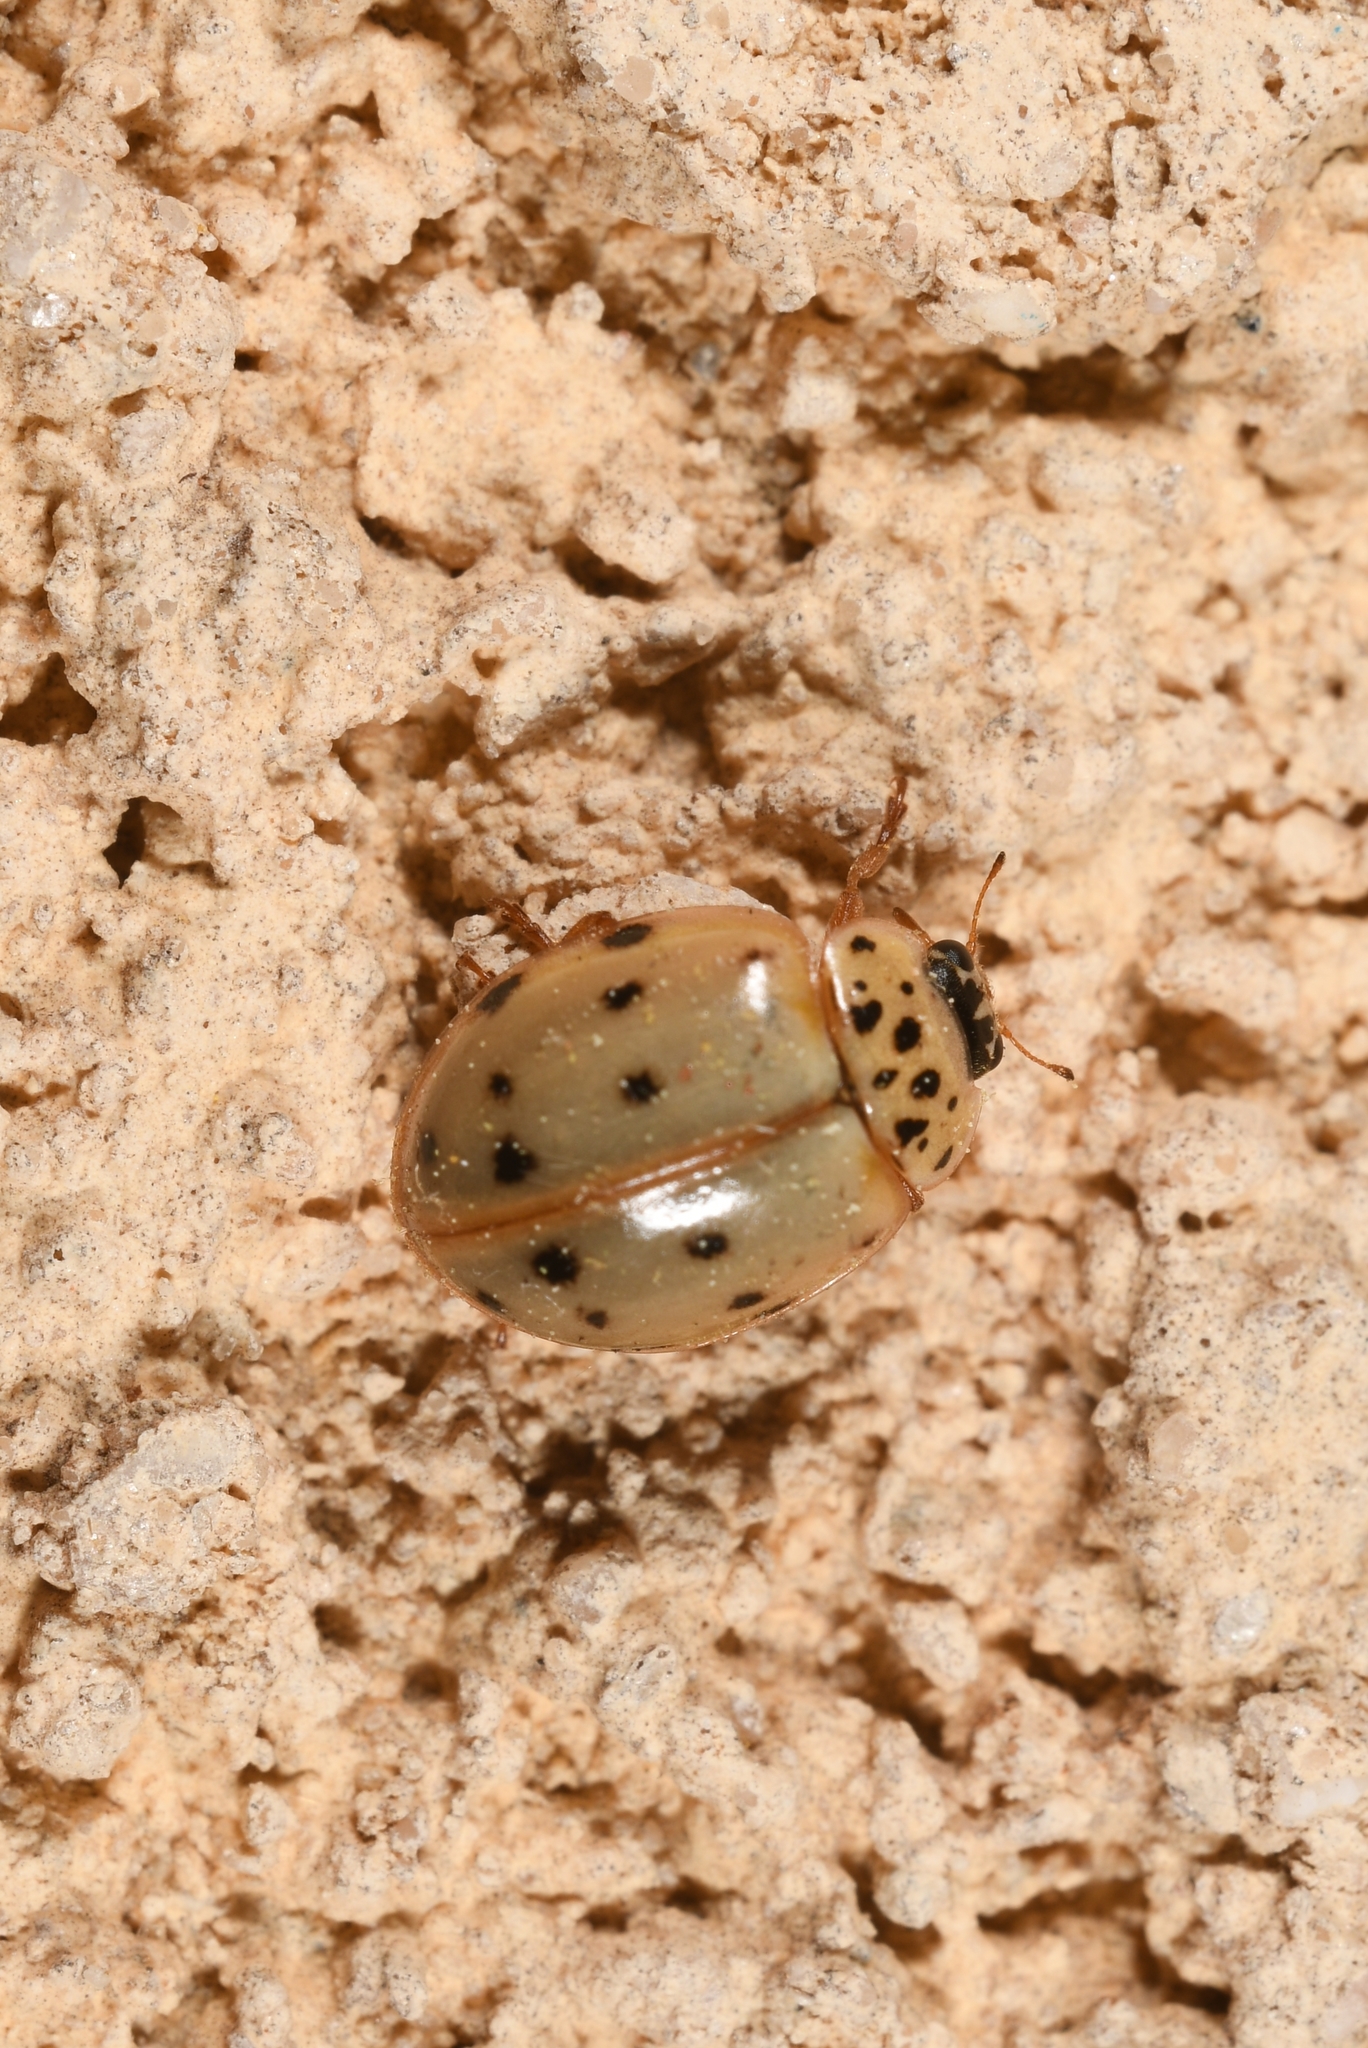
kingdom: Animalia
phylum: Arthropoda
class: Insecta
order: Coleoptera
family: Coccinellidae
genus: Harmonia
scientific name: Harmonia quadripunctata
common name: Cream-streaked ladybird
